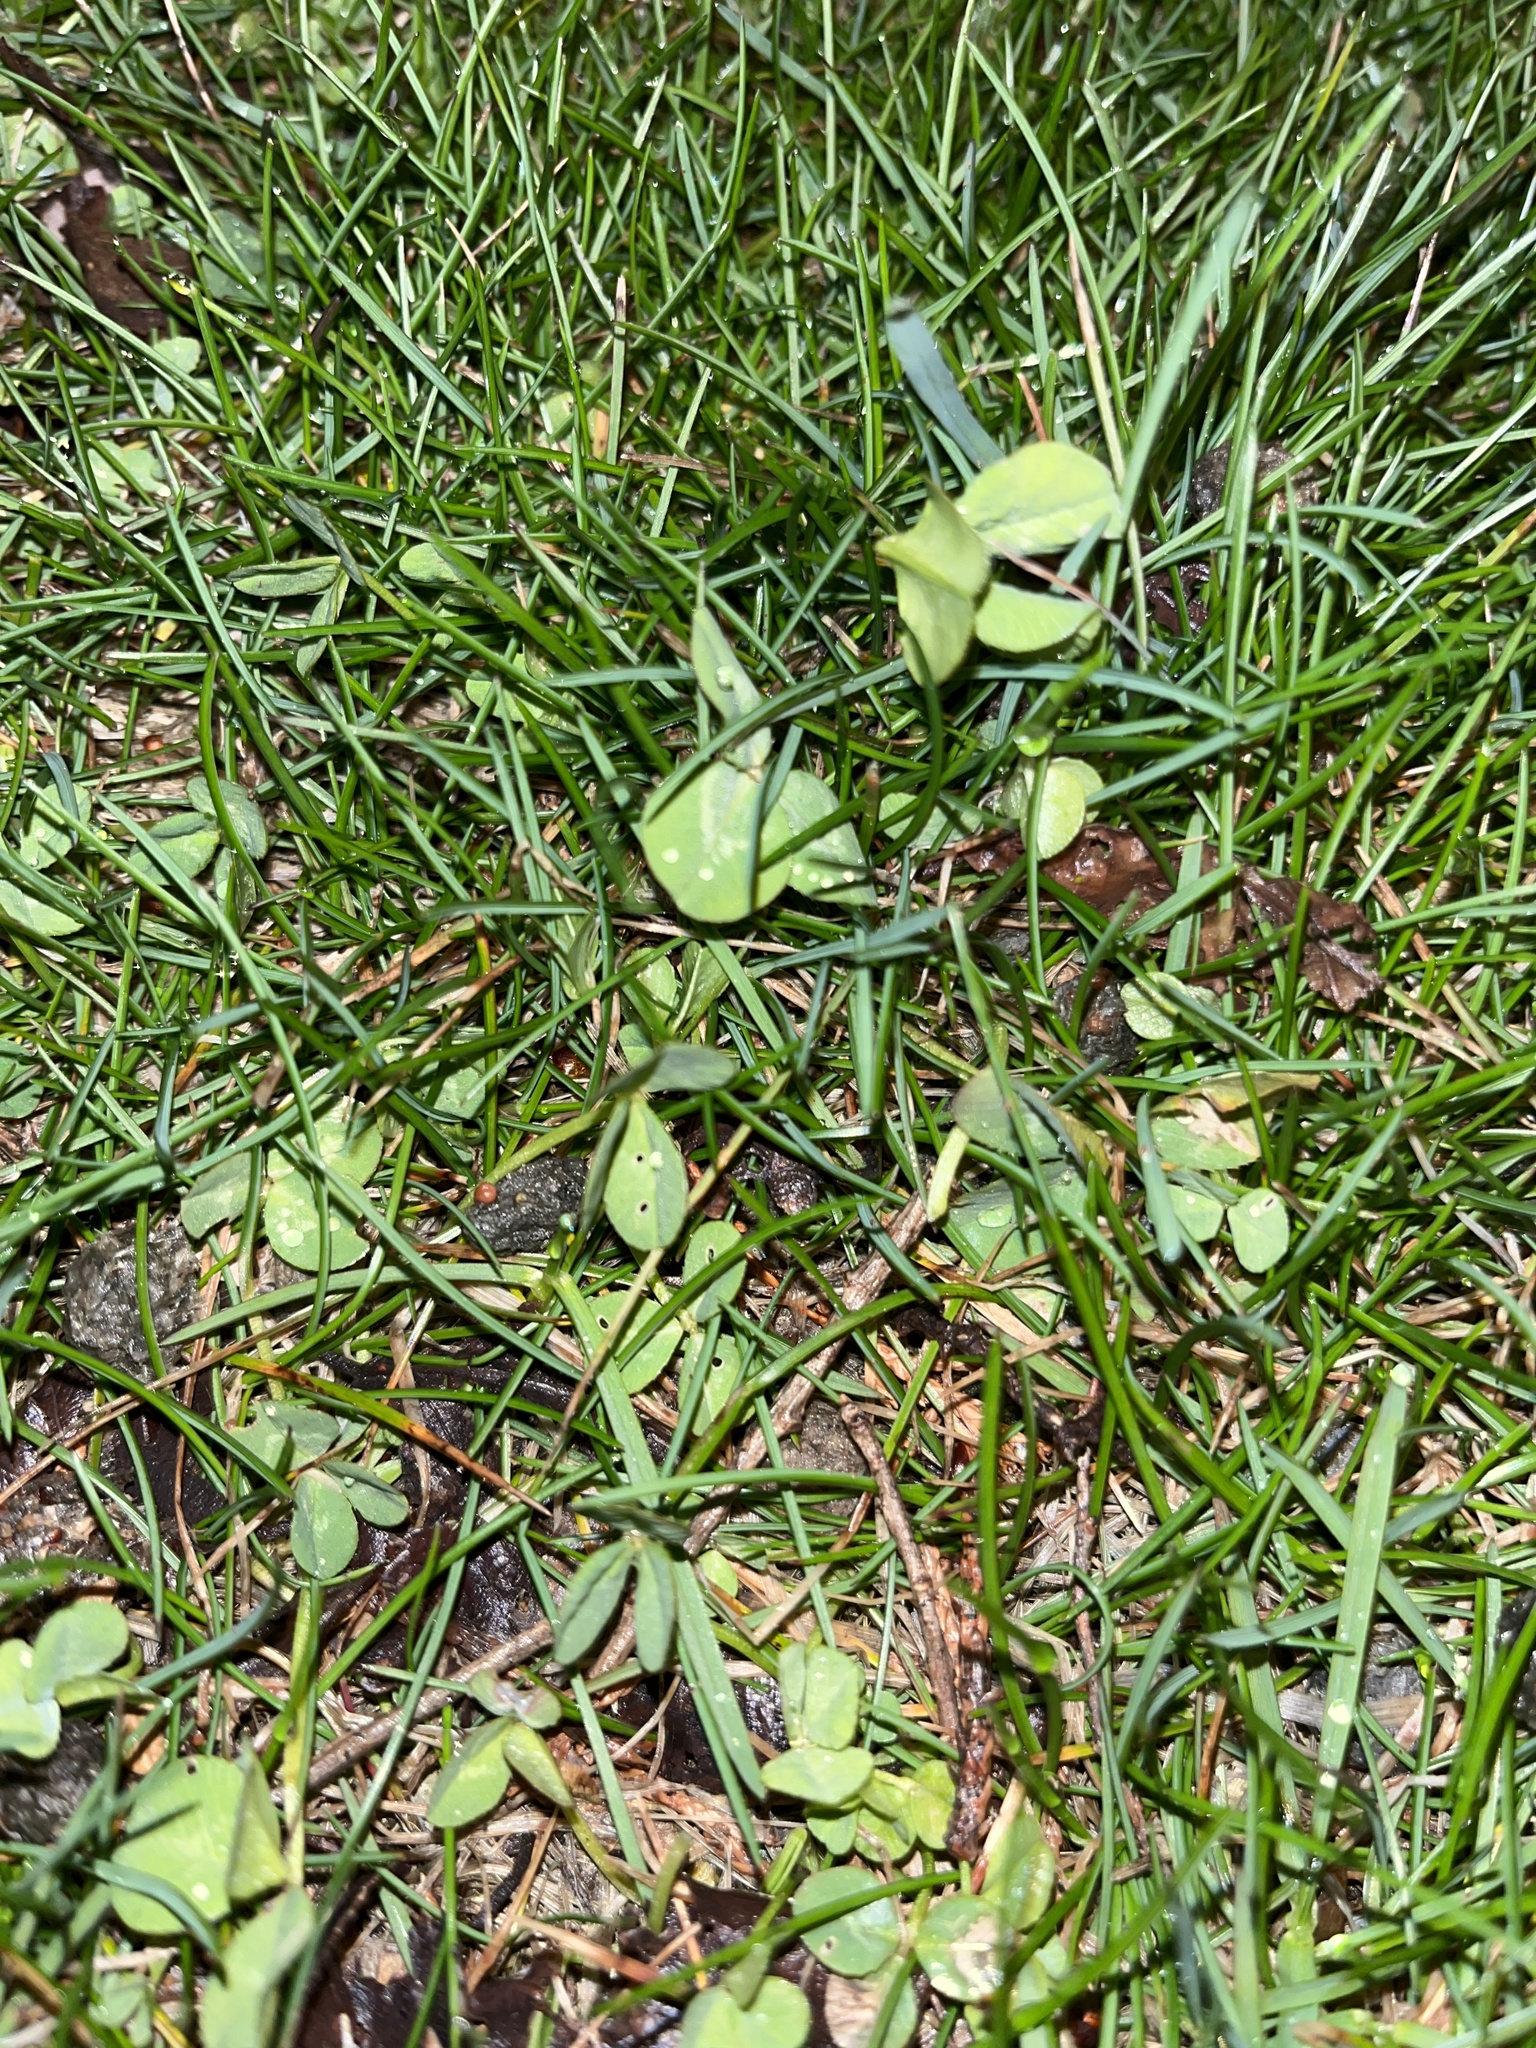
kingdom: Plantae
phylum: Tracheophyta
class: Magnoliopsida
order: Fabales
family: Fabaceae
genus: Trifolium
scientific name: Trifolium repens
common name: White clover
